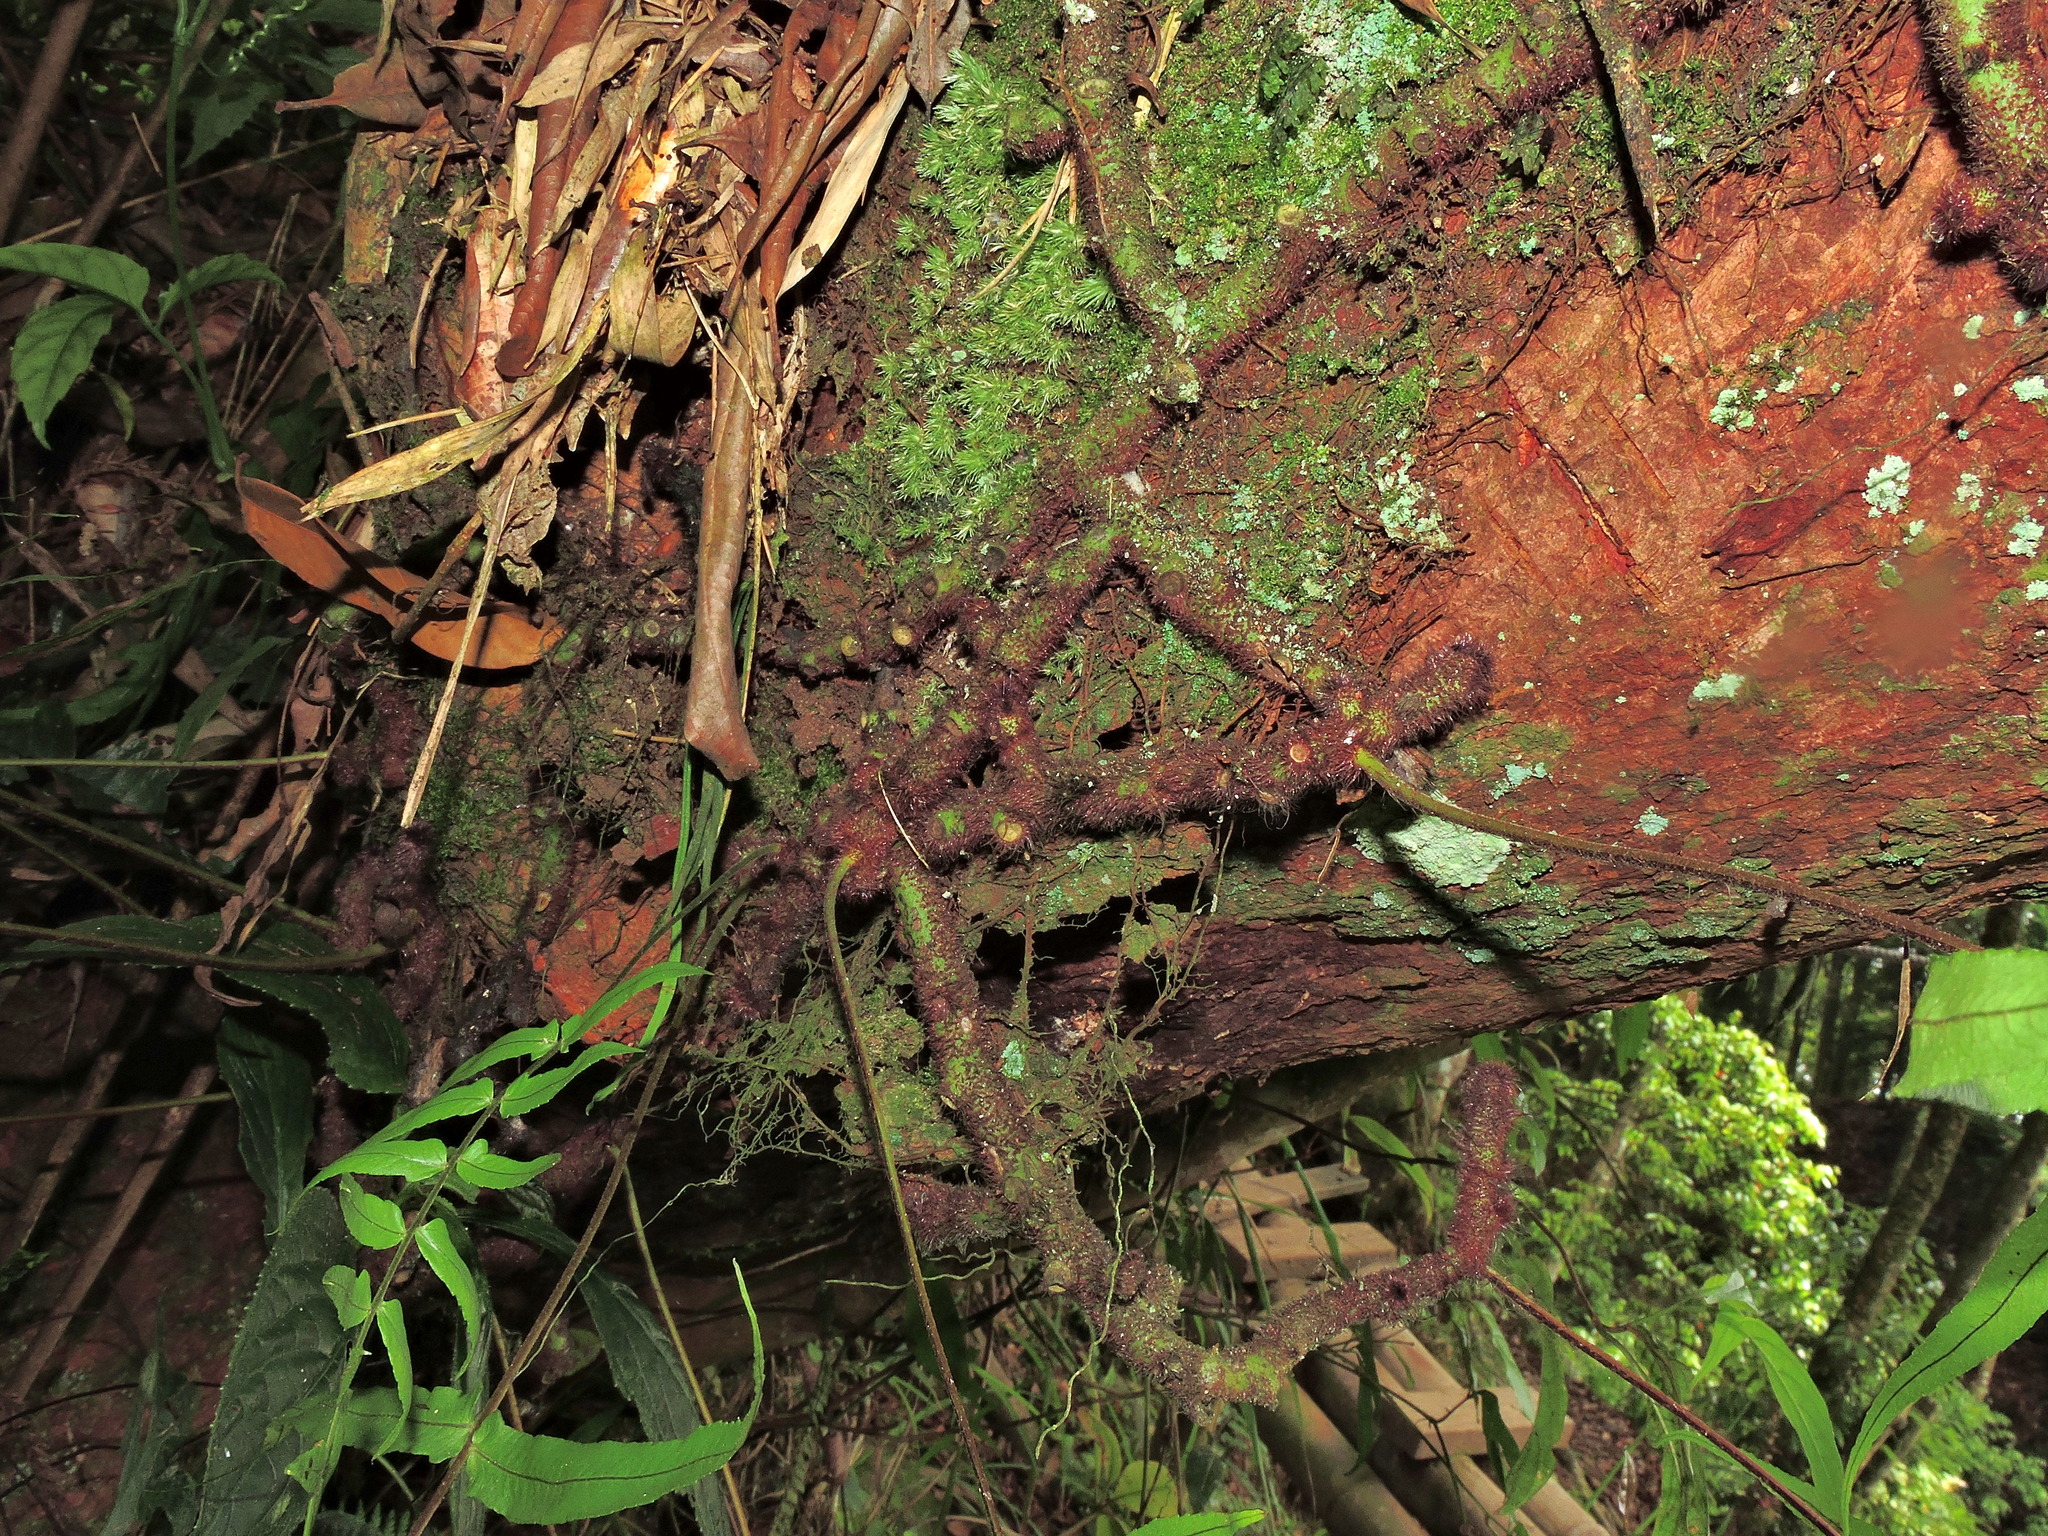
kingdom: Plantae
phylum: Tracheophyta
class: Polypodiopsida
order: Polypodiales
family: Polypodiaceae
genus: Goniophlebium
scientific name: Goniophlebium mengtzeense
